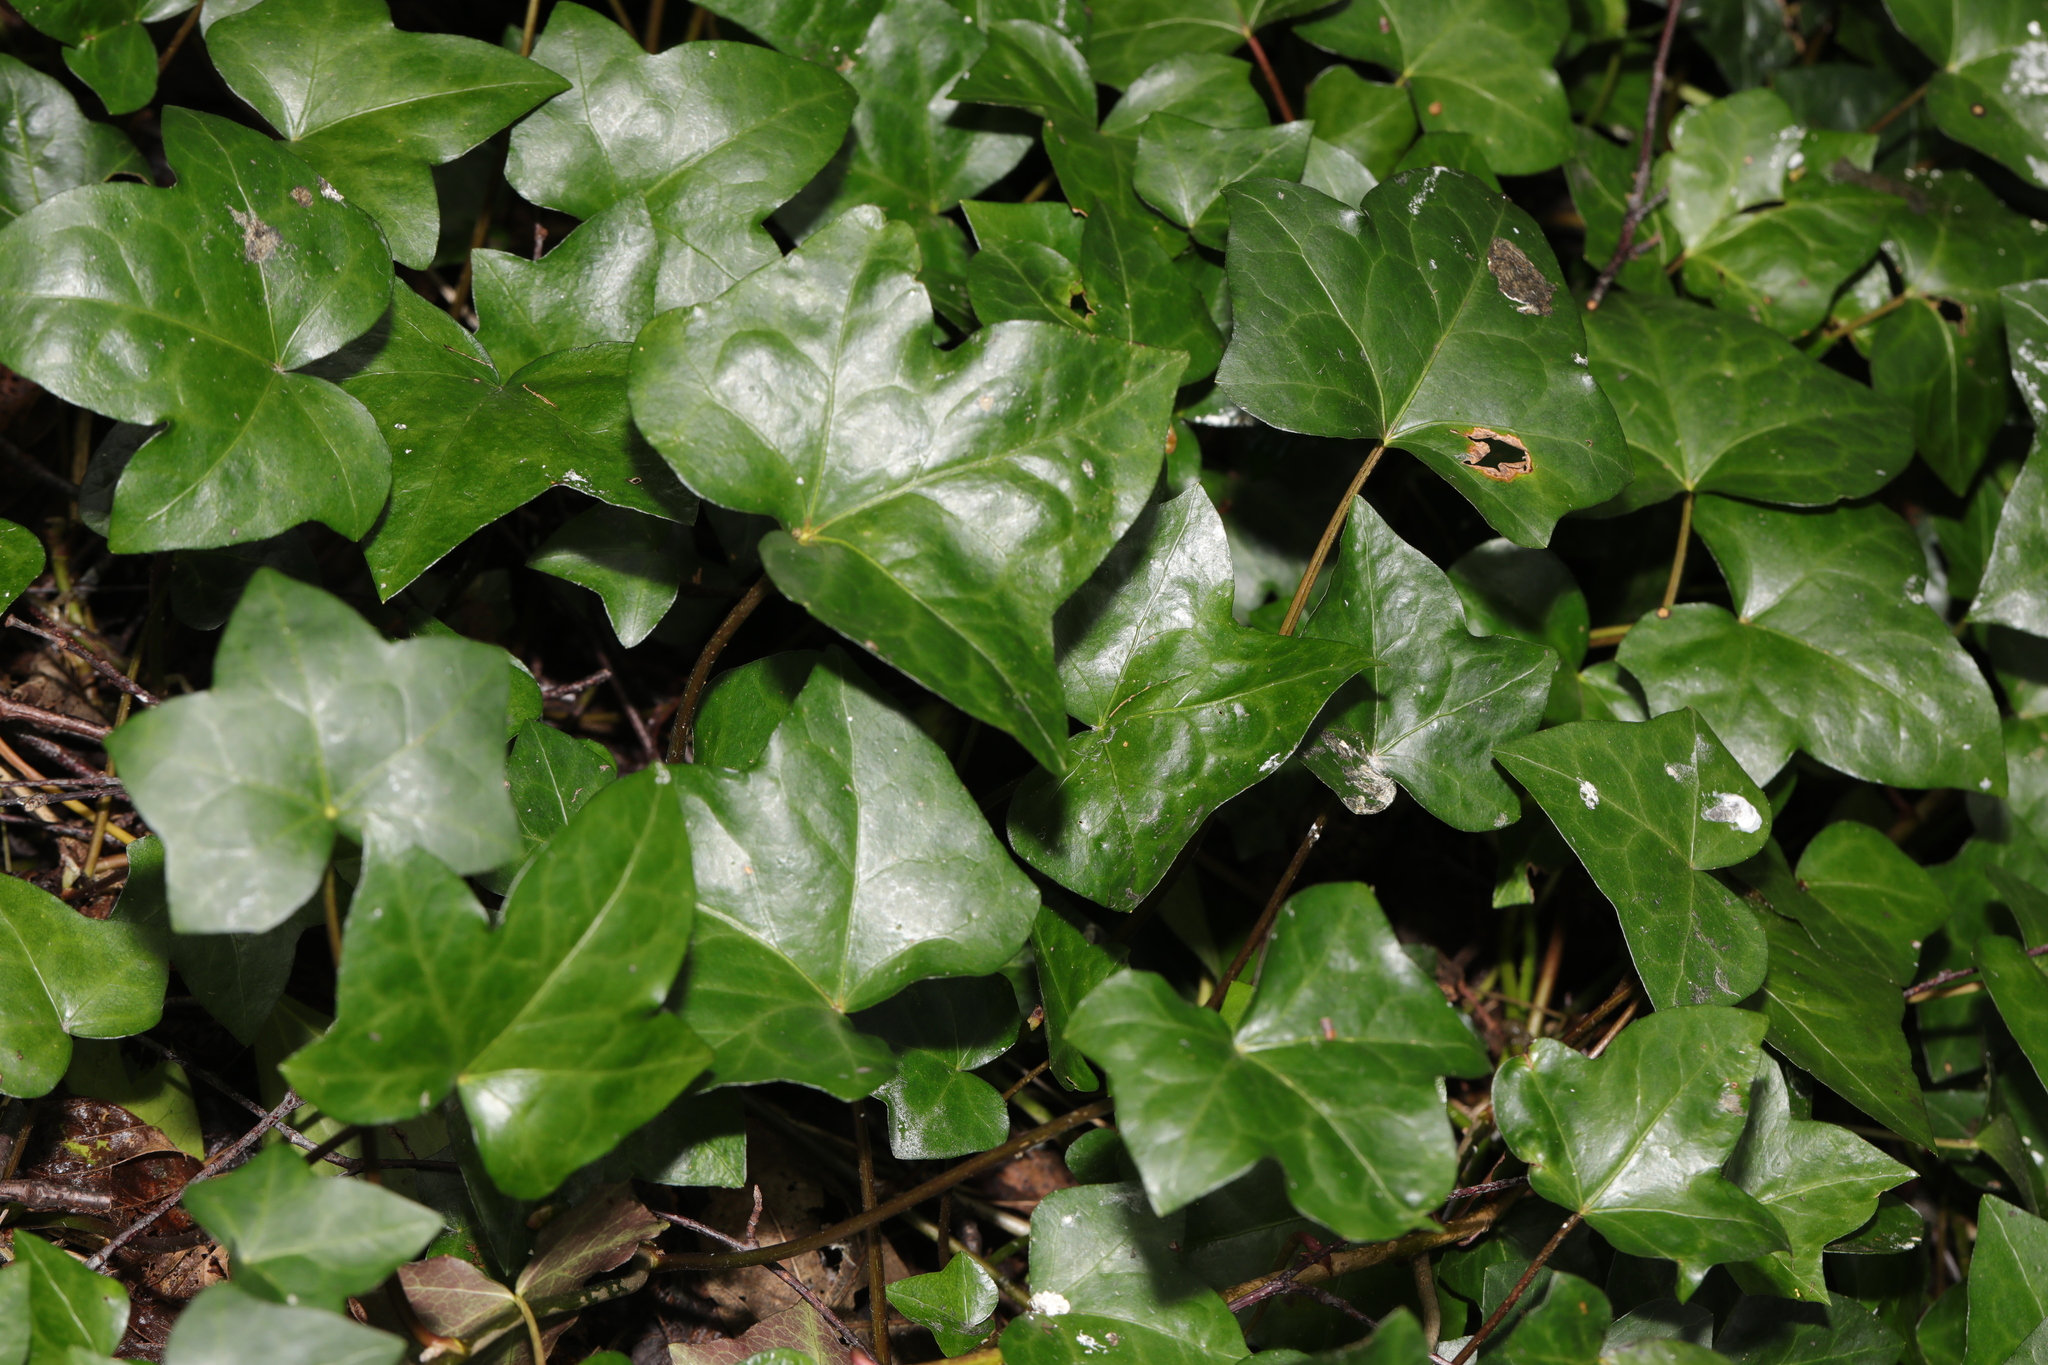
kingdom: Plantae
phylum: Tracheophyta
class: Magnoliopsida
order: Apiales
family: Araliaceae
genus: Hedera
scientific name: Hedera helix
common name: Ivy
